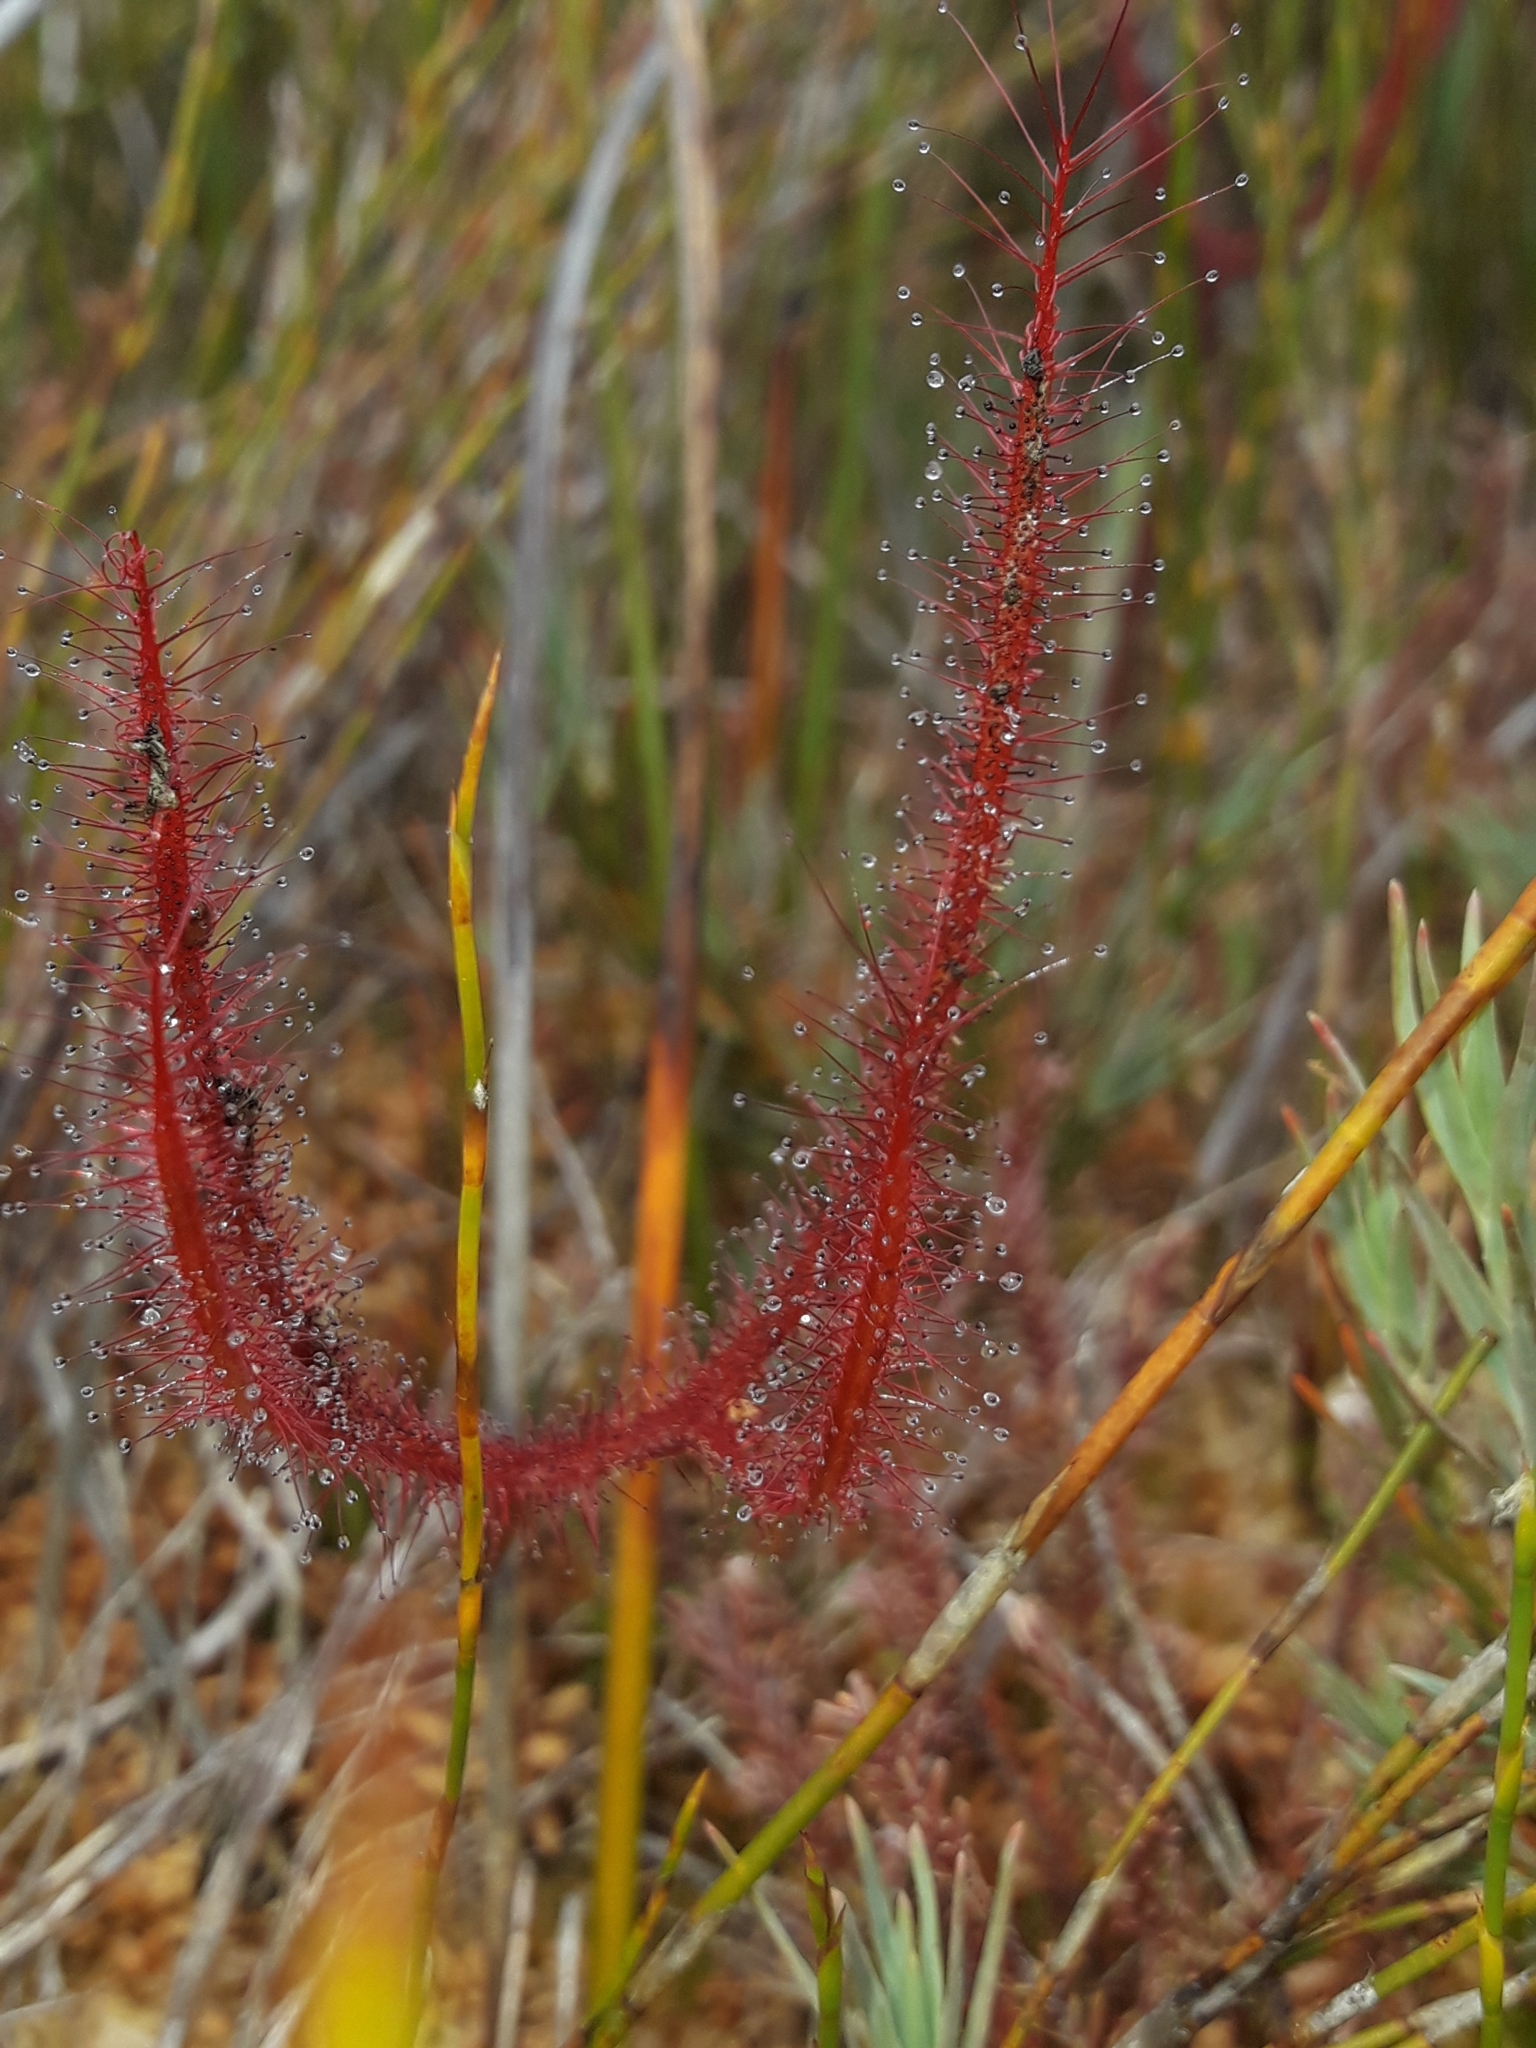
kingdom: Plantae
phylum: Tracheophyta
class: Magnoliopsida
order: Caryophyllales
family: Droseraceae
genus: Drosera
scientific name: Drosera binata
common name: Forked sundew
